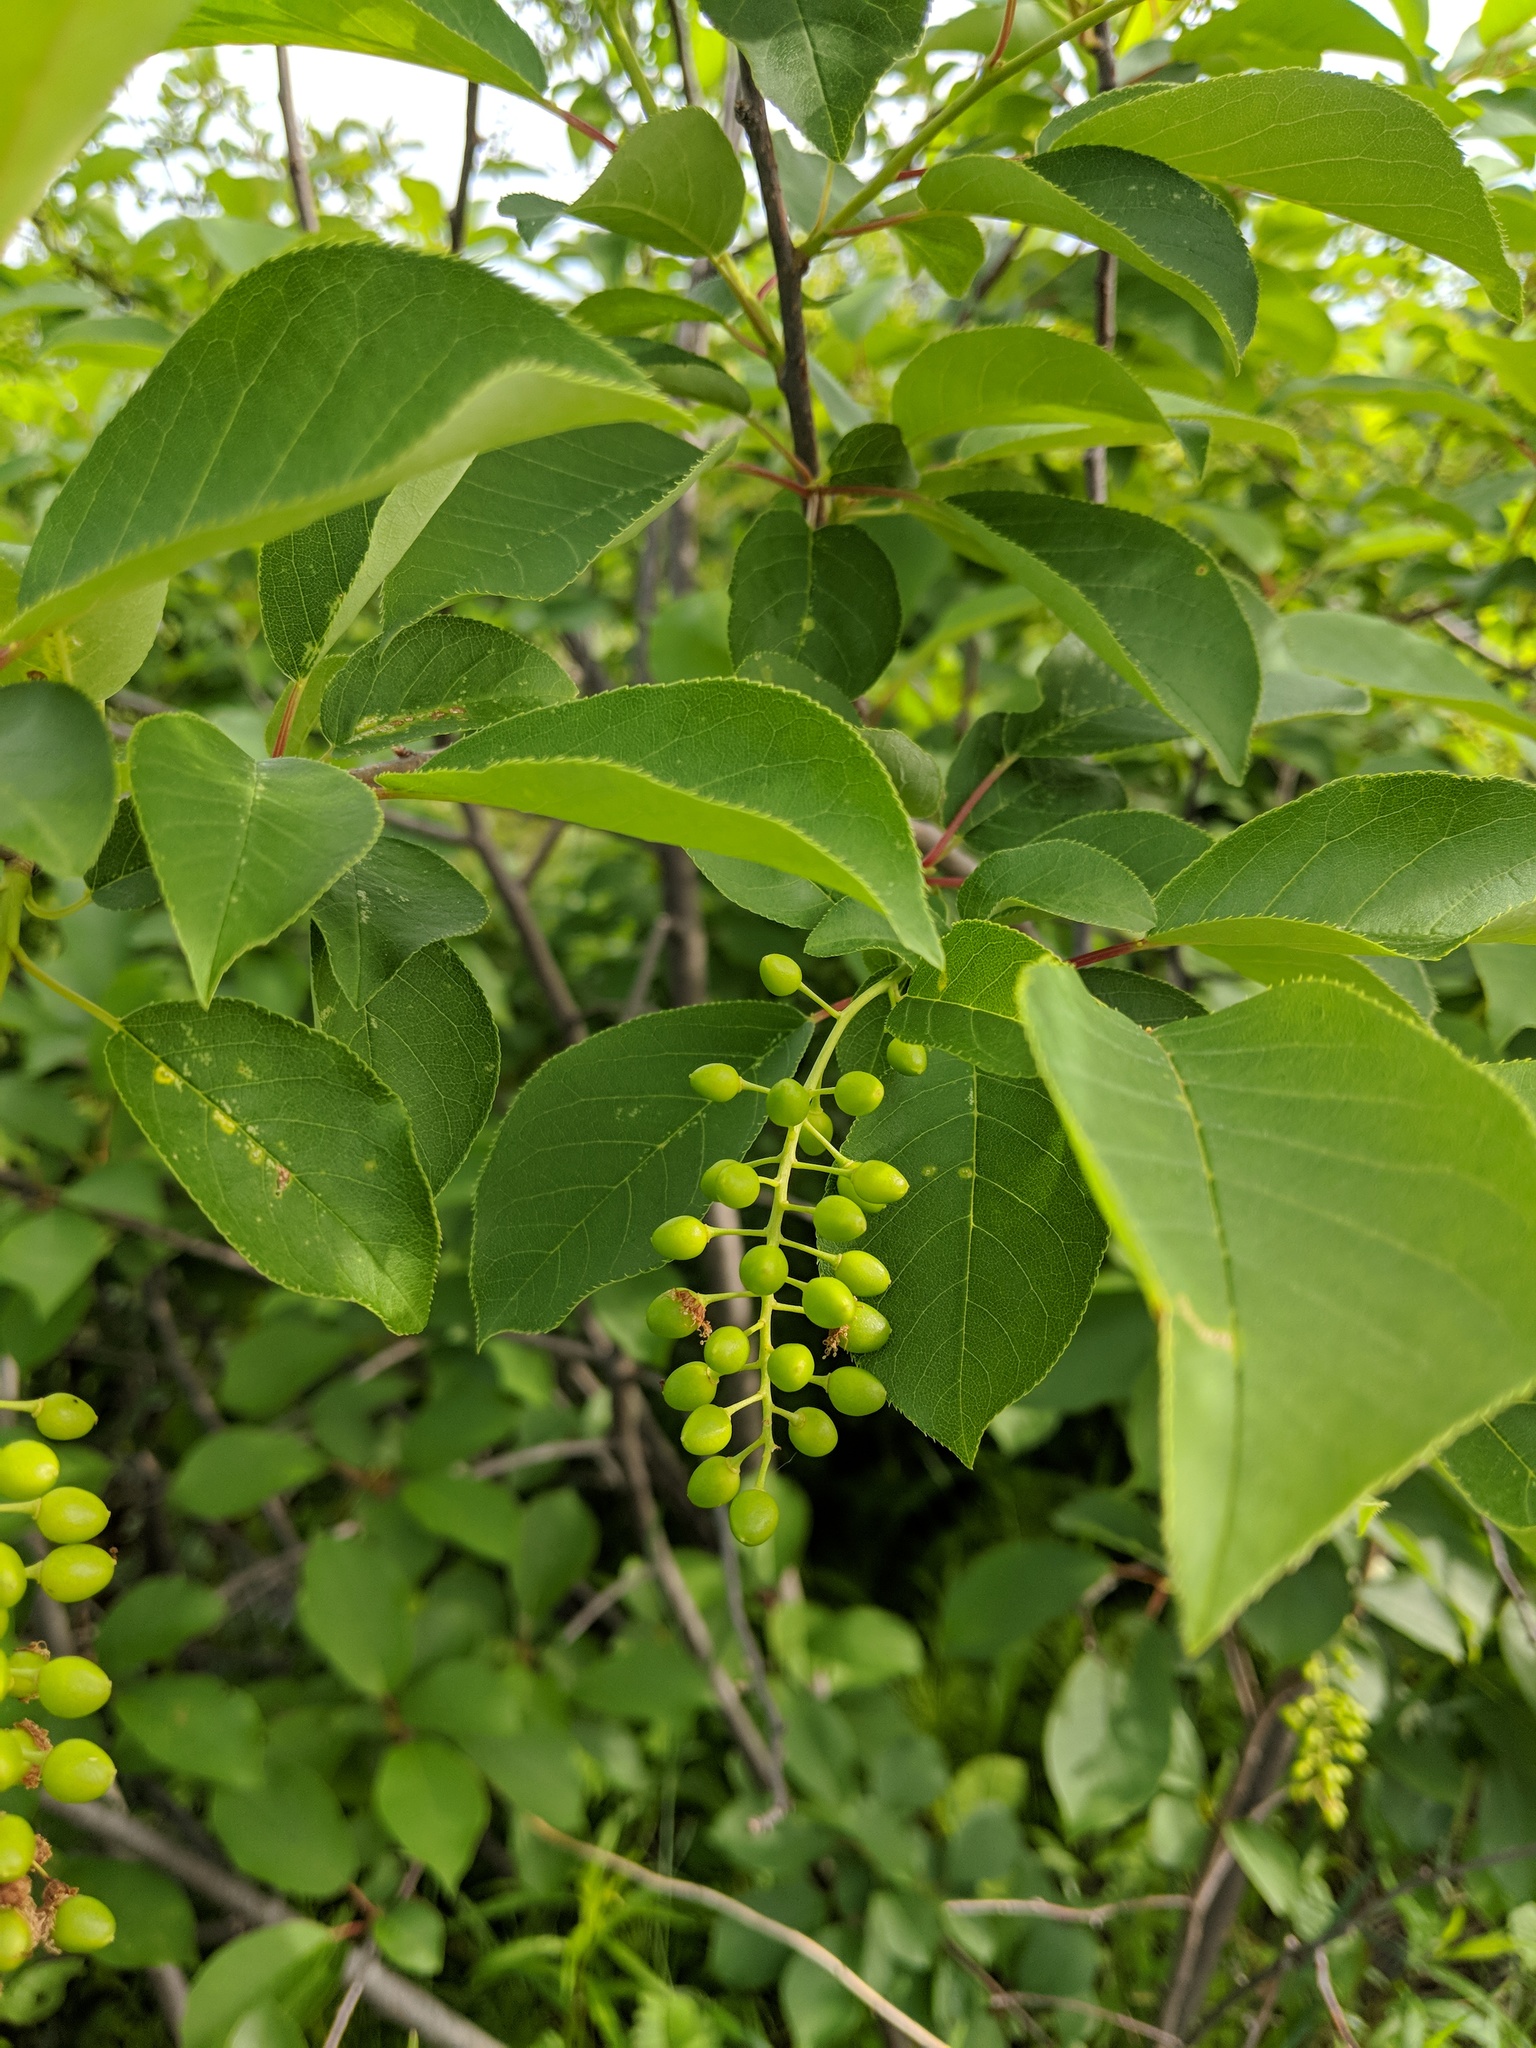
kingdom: Plantae
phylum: Tracheophyta
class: Magnoliopsida
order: Rosales
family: Rosaceae
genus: Prunus
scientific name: Prunus virginiana
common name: Chokecherry
